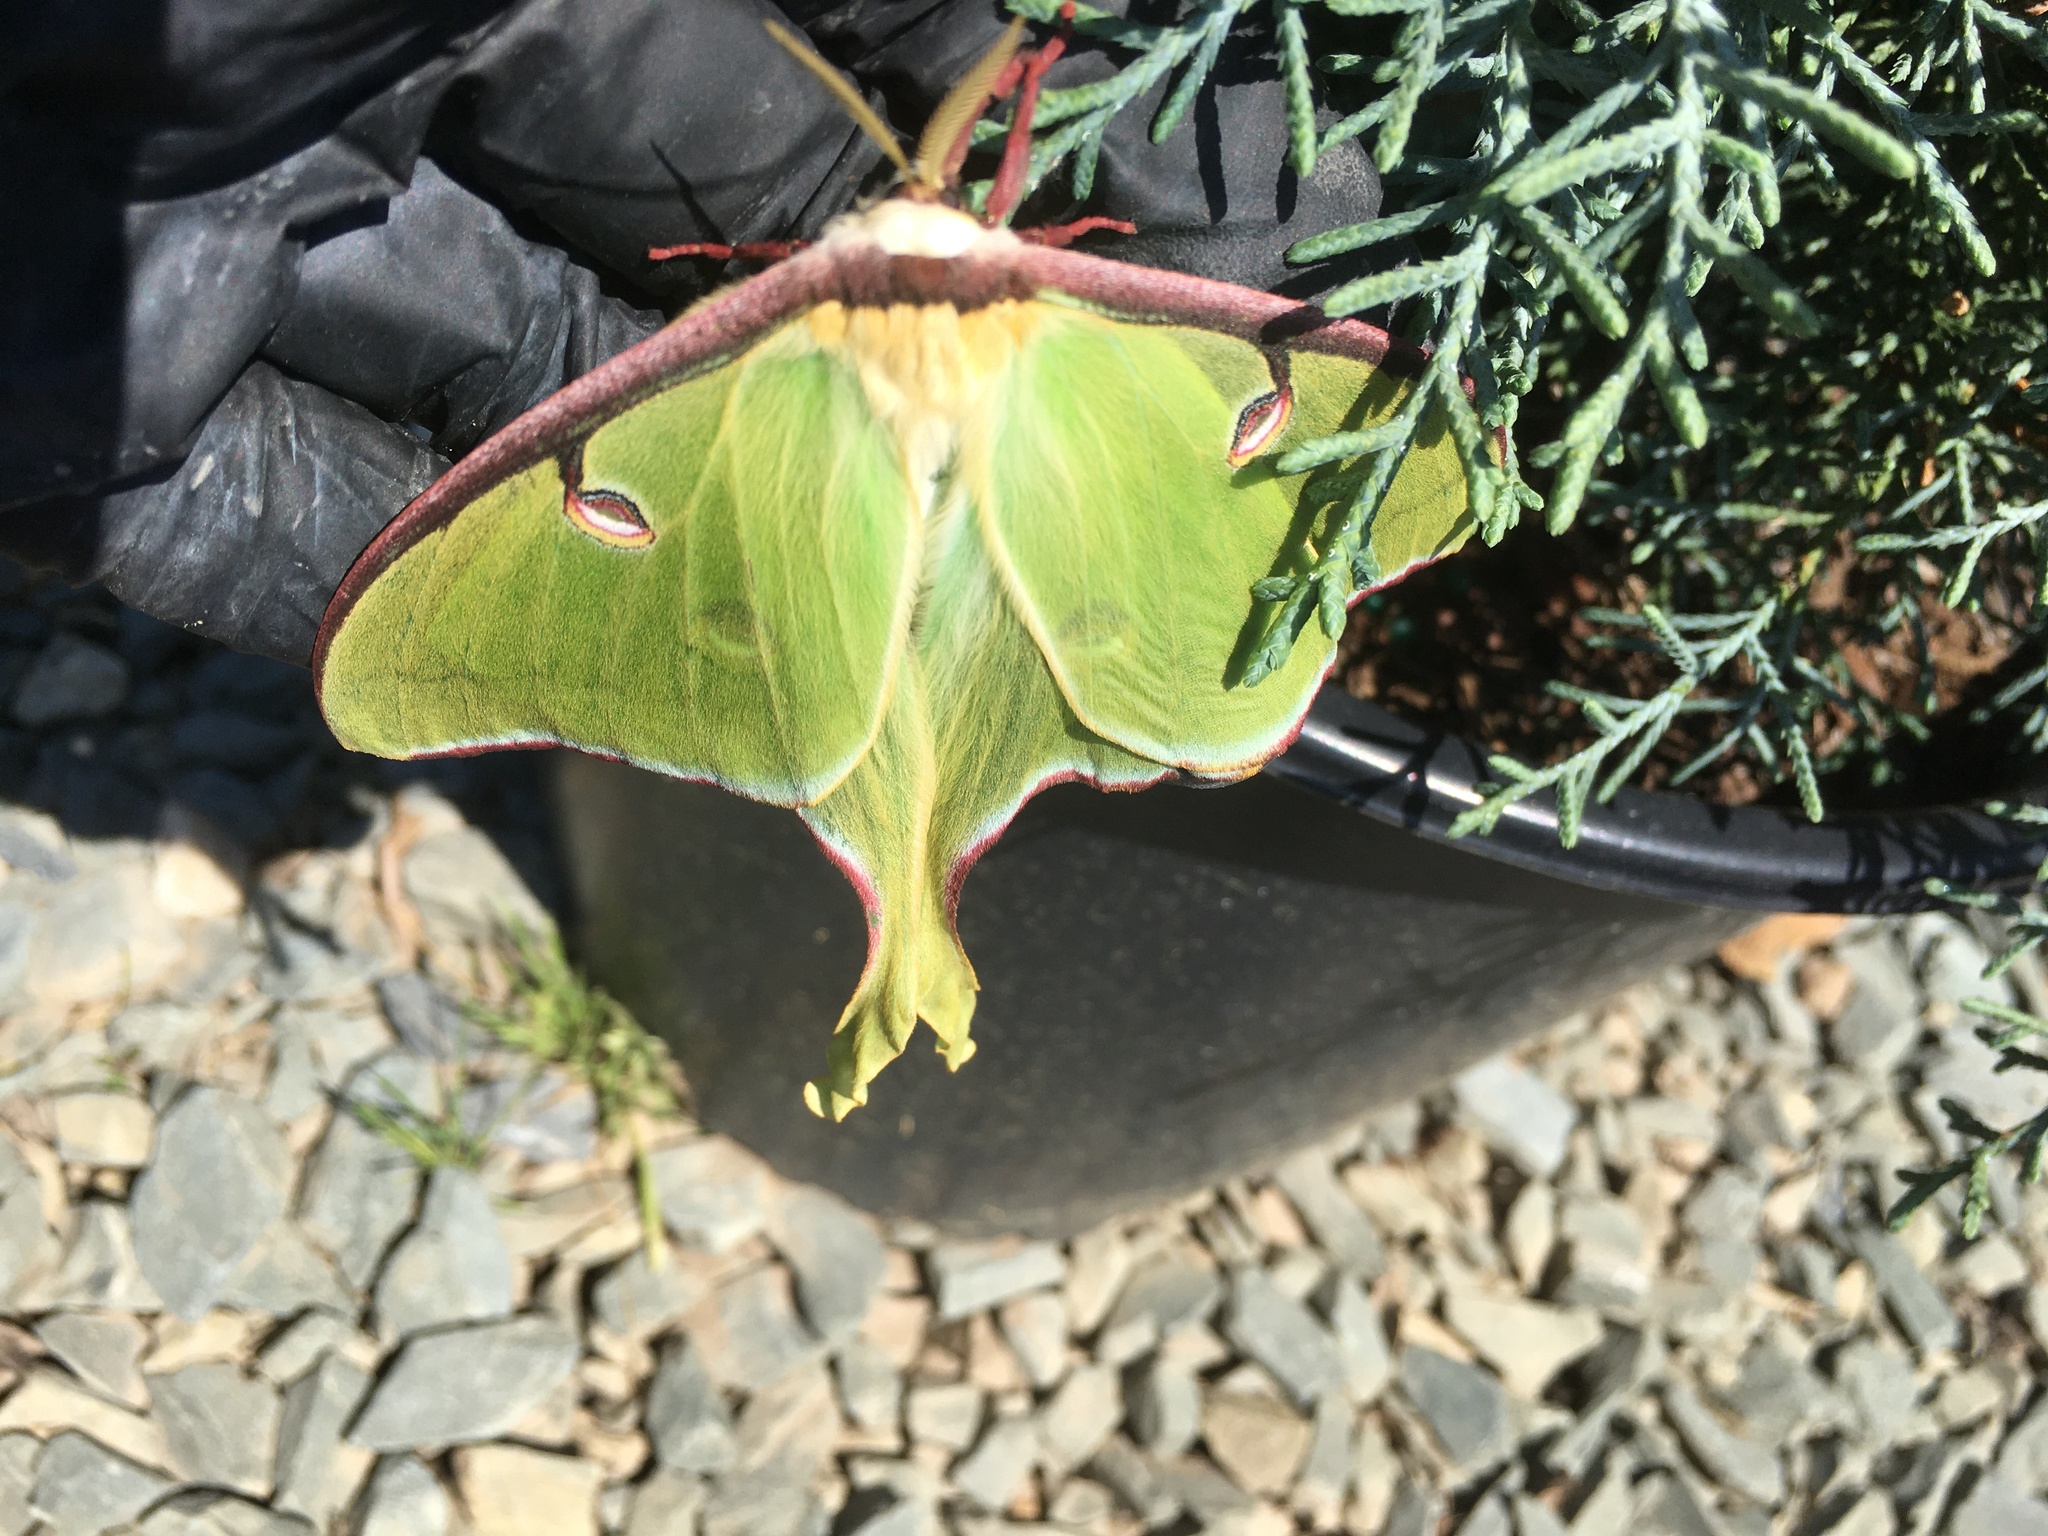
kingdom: Animalia
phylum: Arthropoda
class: Insecta
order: Lepidoptera
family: Saturniidae
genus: Actias
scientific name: Actias luna
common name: Luna moth
